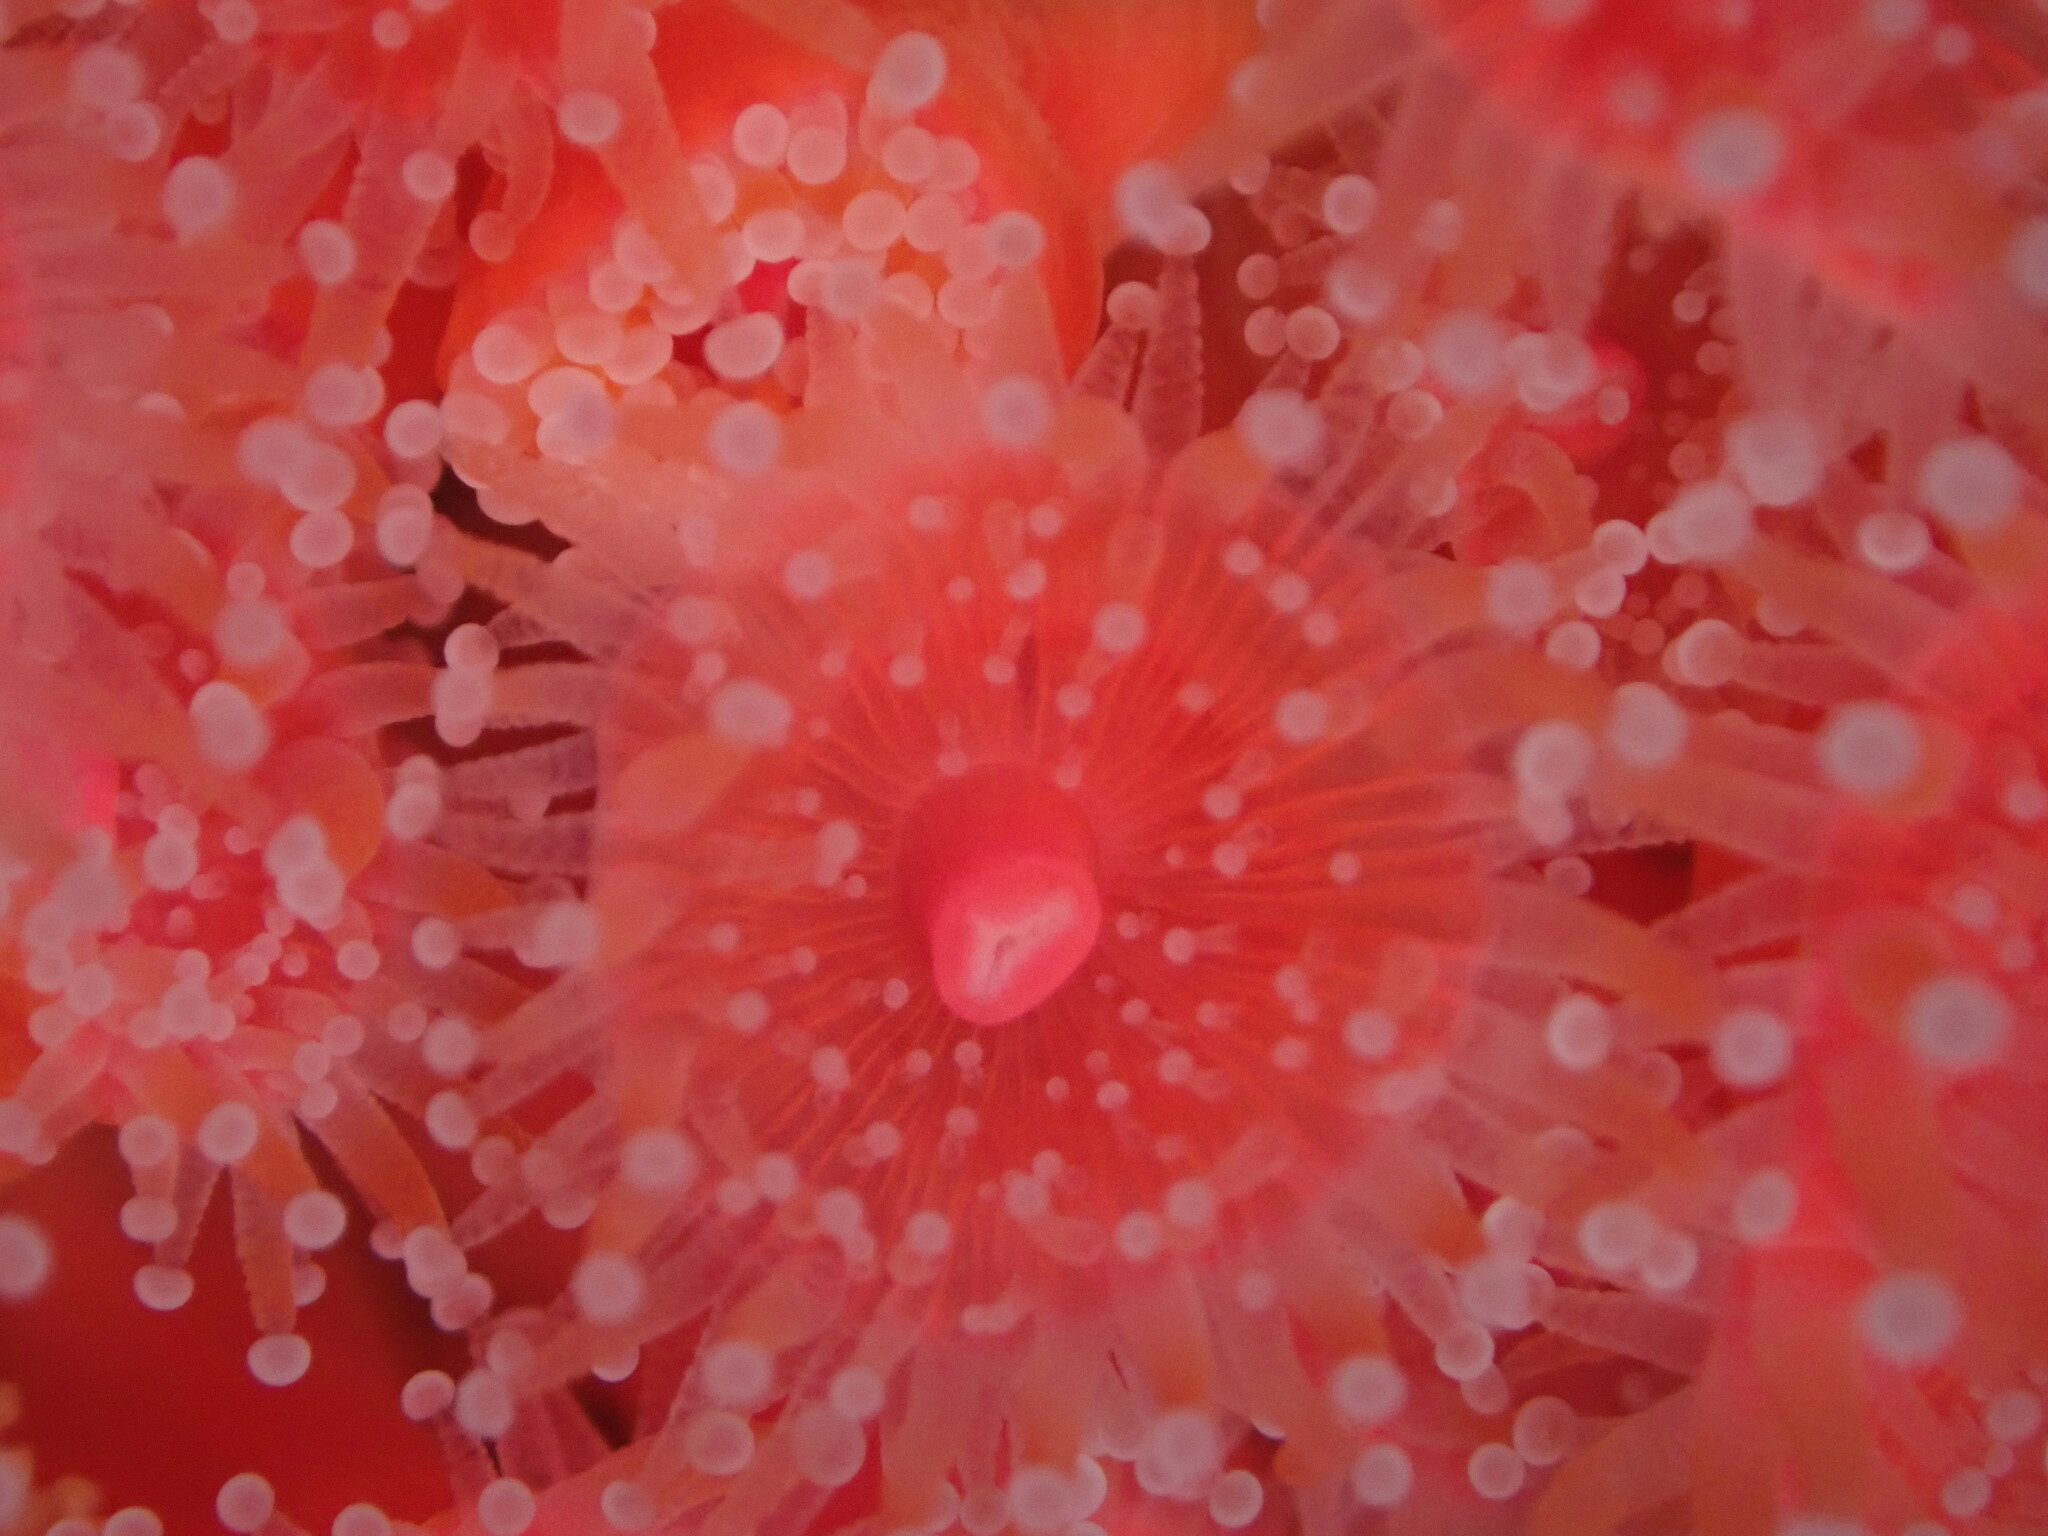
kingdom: Animalia
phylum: Cnidaria
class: Anthozoa
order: Corallimorpharia
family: Corallimorphidae
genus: Corynactis
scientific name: Corynactis californica
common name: Strawberry corallimorpharian
